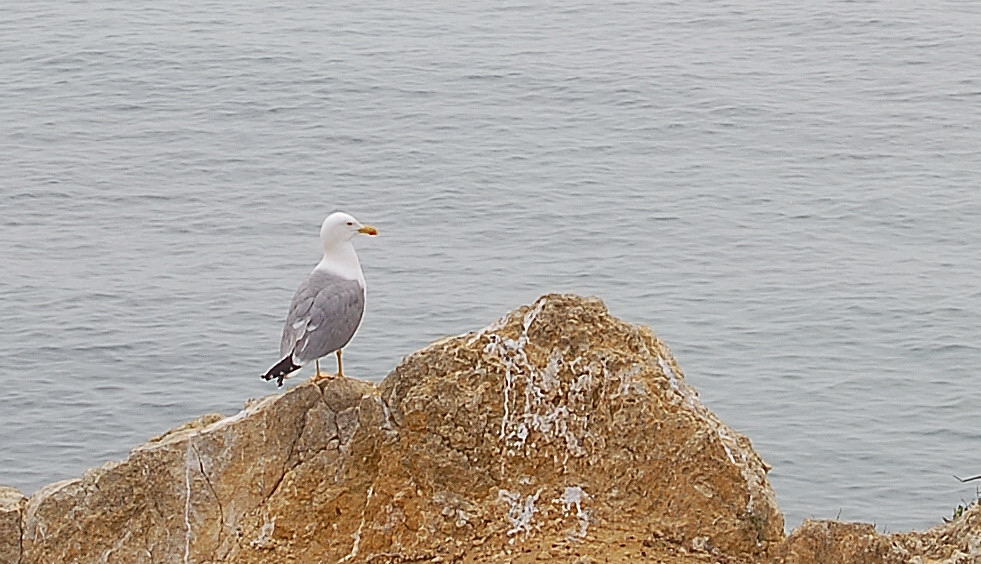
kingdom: Animalia
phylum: Chordata
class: Aves
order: Charadriiformes
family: Laridae
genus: Larus
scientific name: Larus michahellis
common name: Yellow-legged gull
